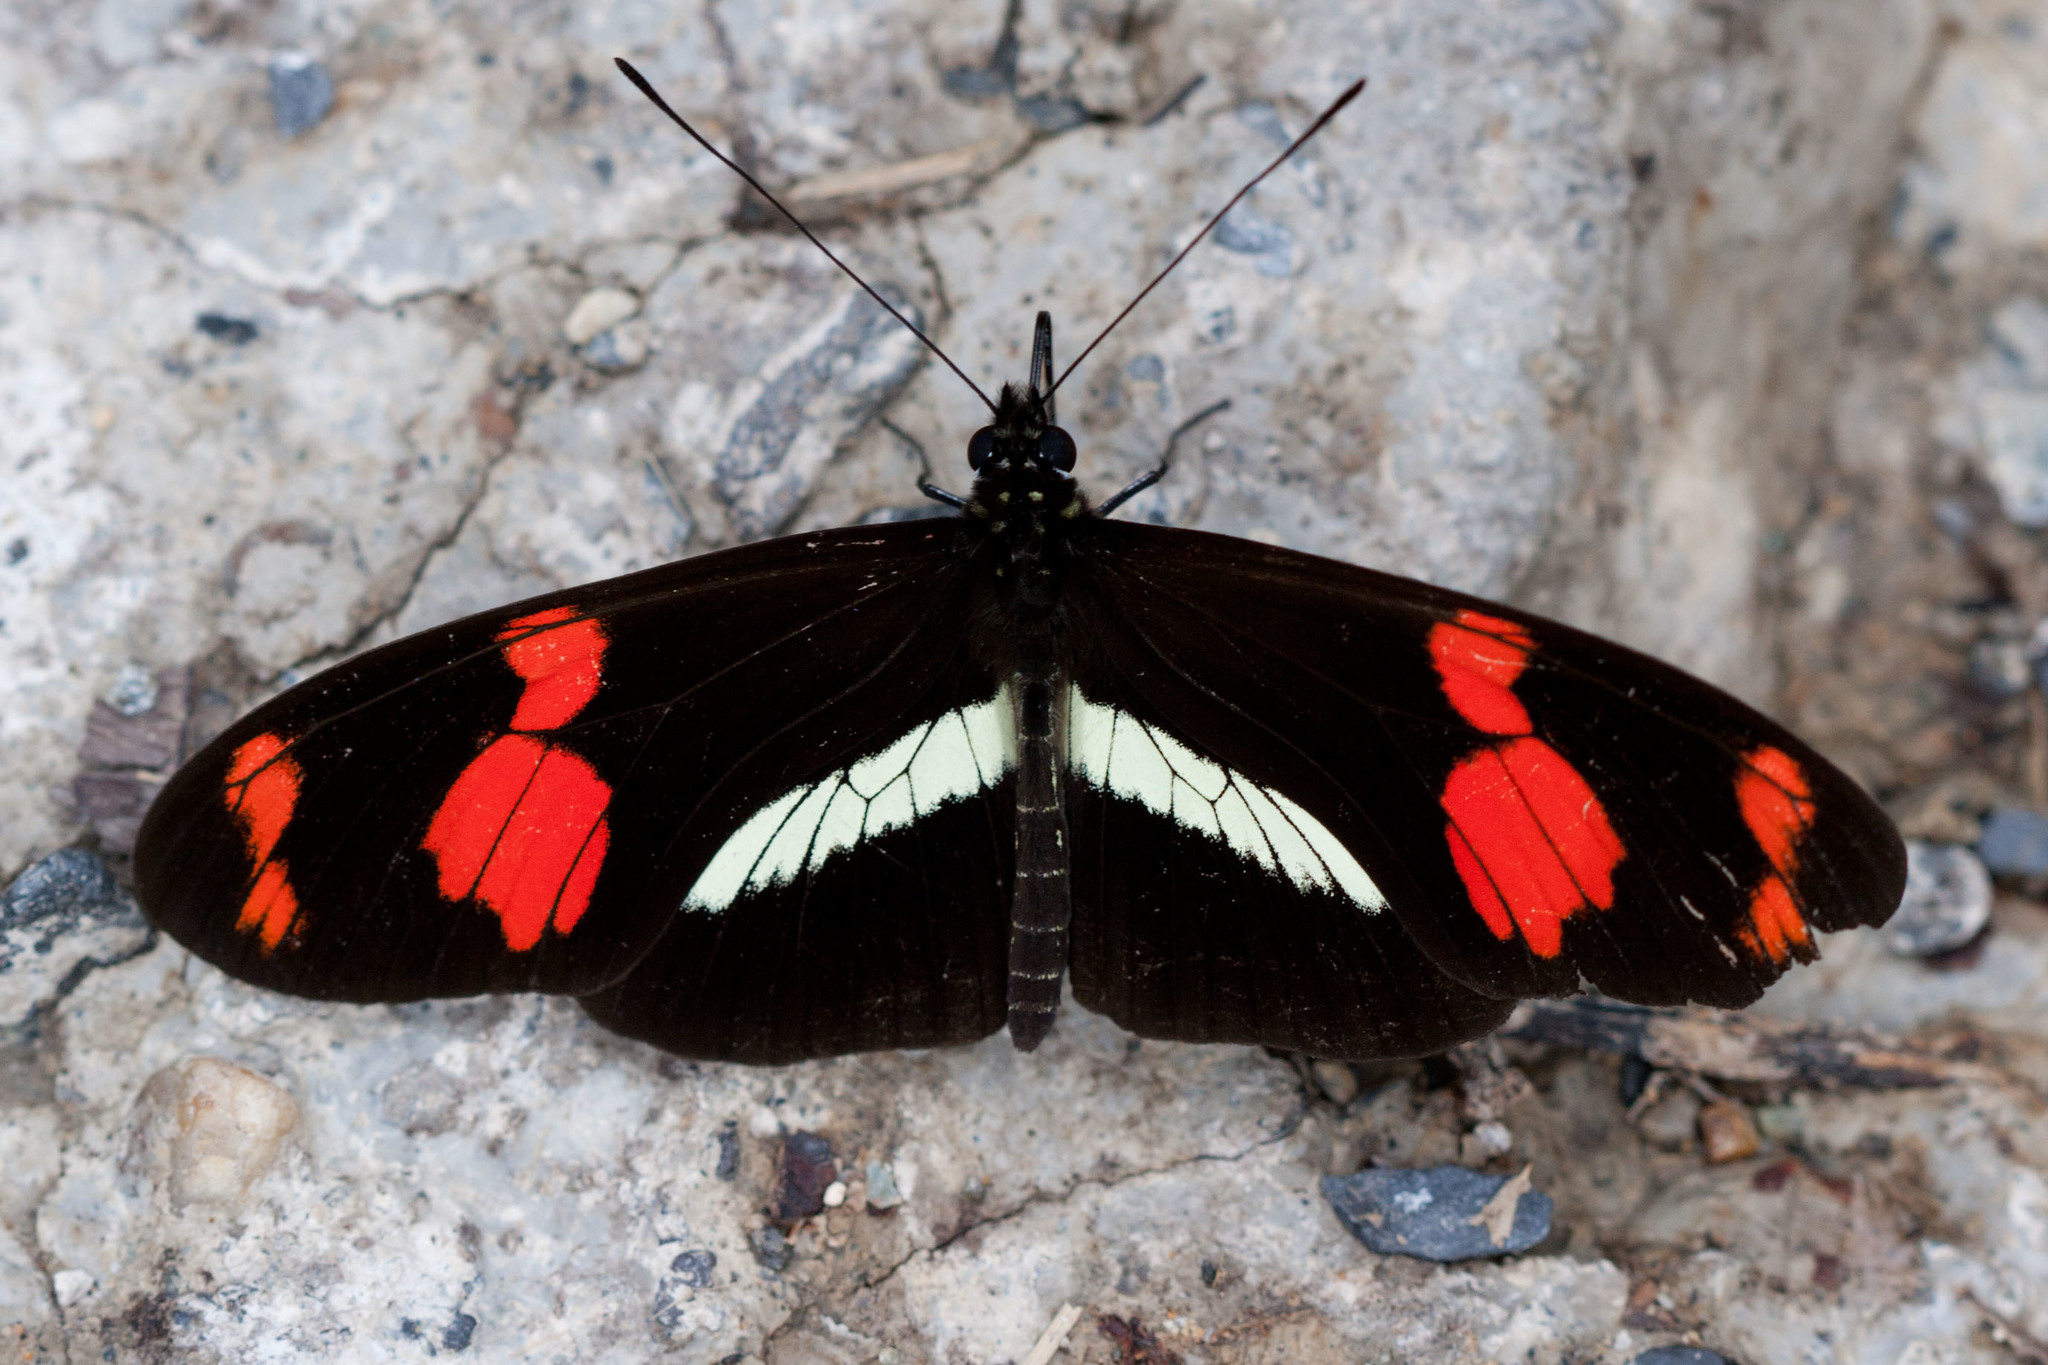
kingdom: Animalia
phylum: Arthropoda
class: Insecta
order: Lepidoptera
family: Nymphalidae
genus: Heliconius
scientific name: Heliconius telesiphe
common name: Telesiphe longwing
